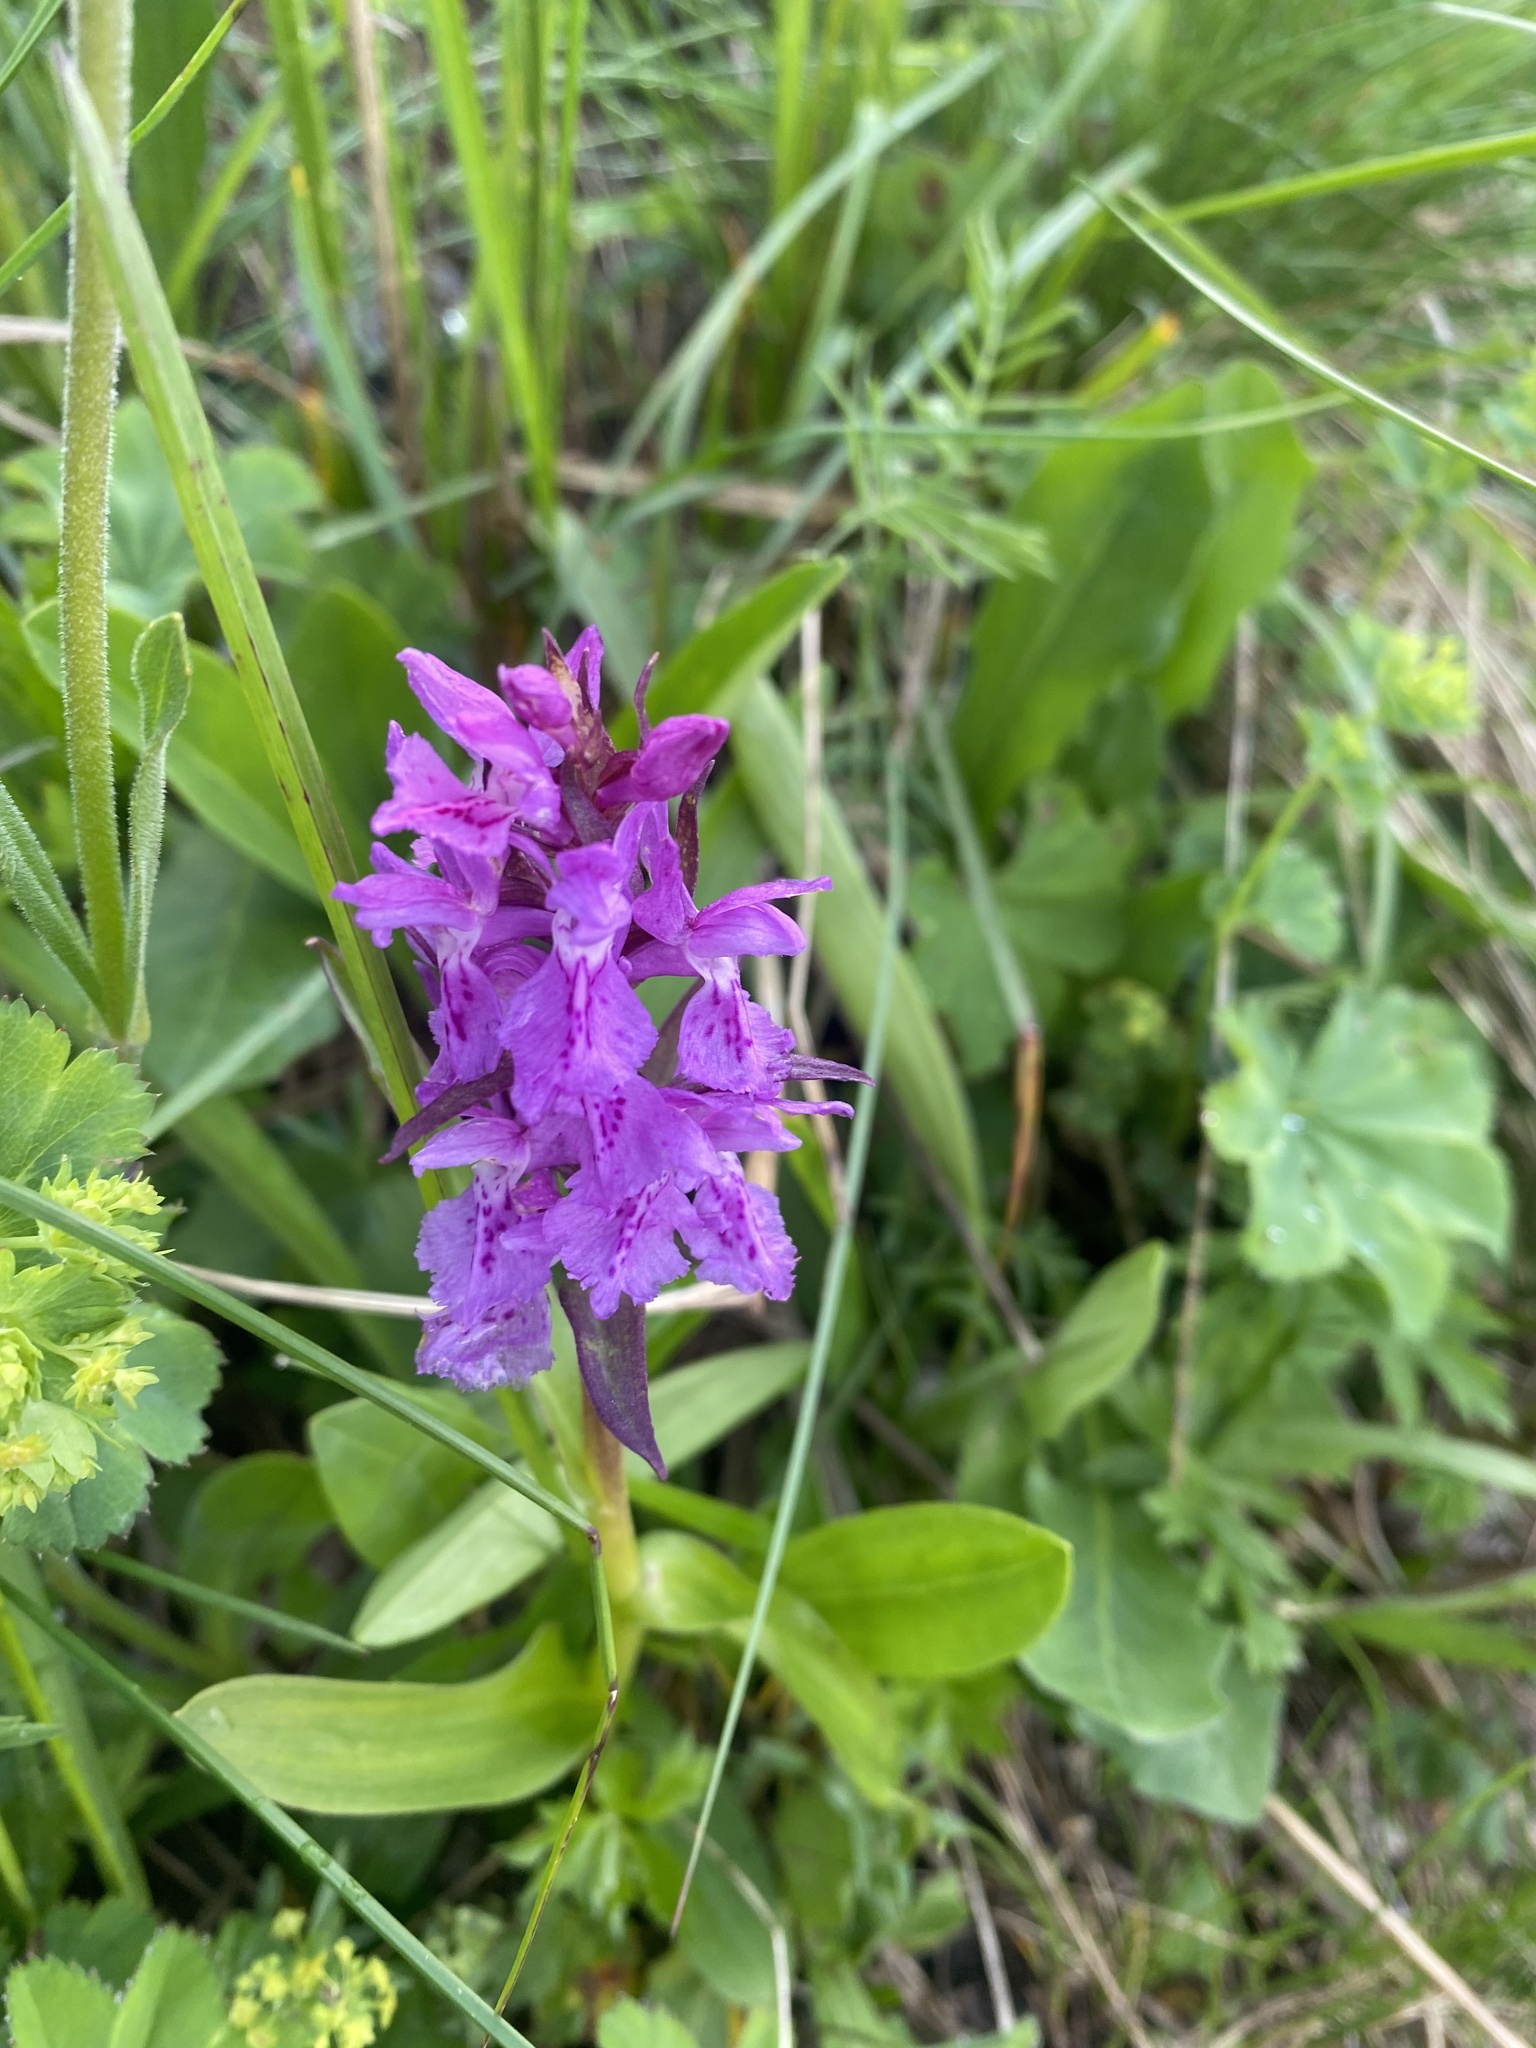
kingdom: Plantae
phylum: Tracheophyta
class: Liliopsida
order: Asparagales
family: Orchidaceae
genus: Dactylorhiza
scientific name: Dactylorhiza euxina
